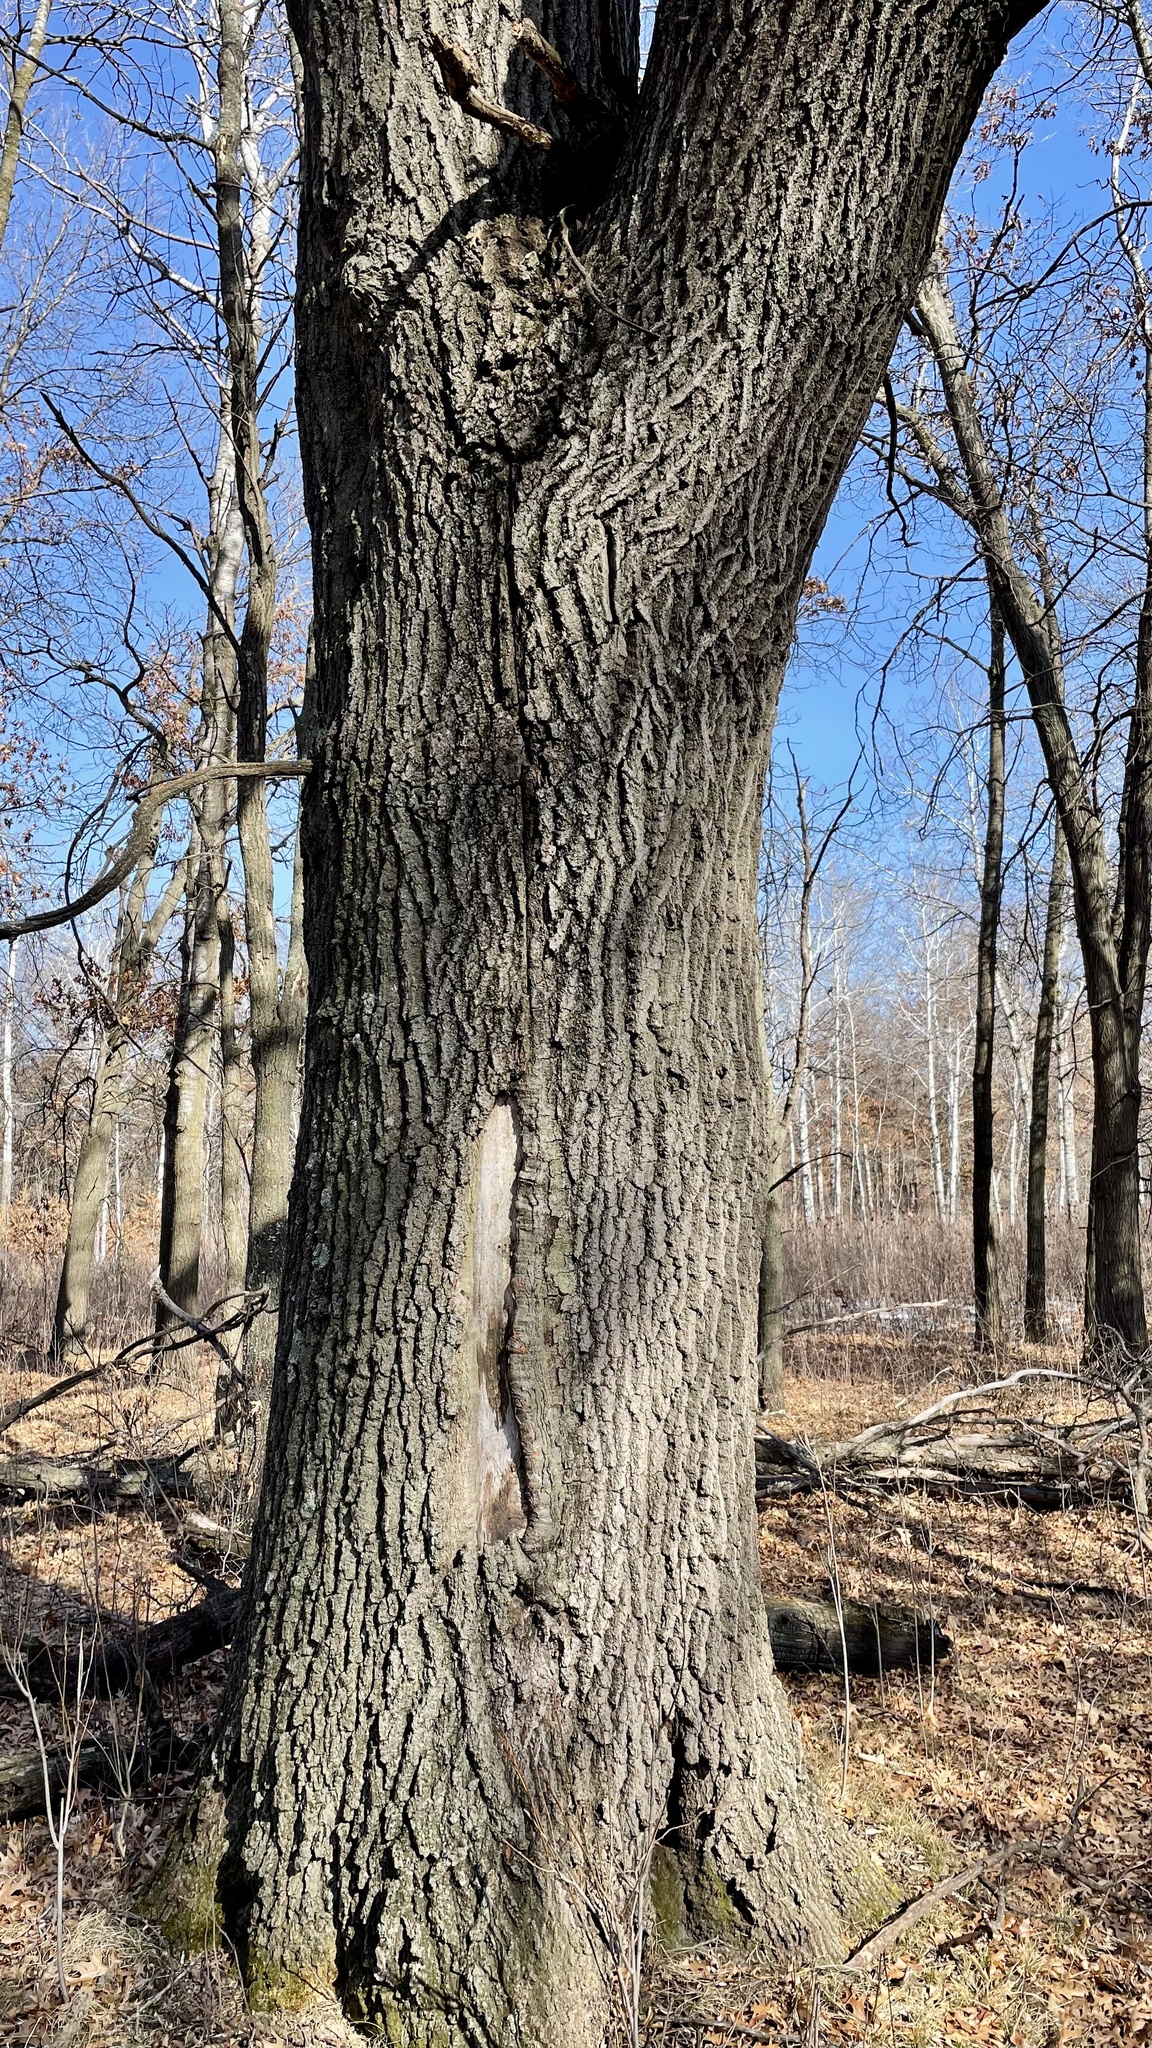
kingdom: Plantae
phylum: Tracheophyta
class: Magnoliopsida
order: Fagales
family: Fagaceae
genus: Quercus
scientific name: Quercus rubra
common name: Red oak
